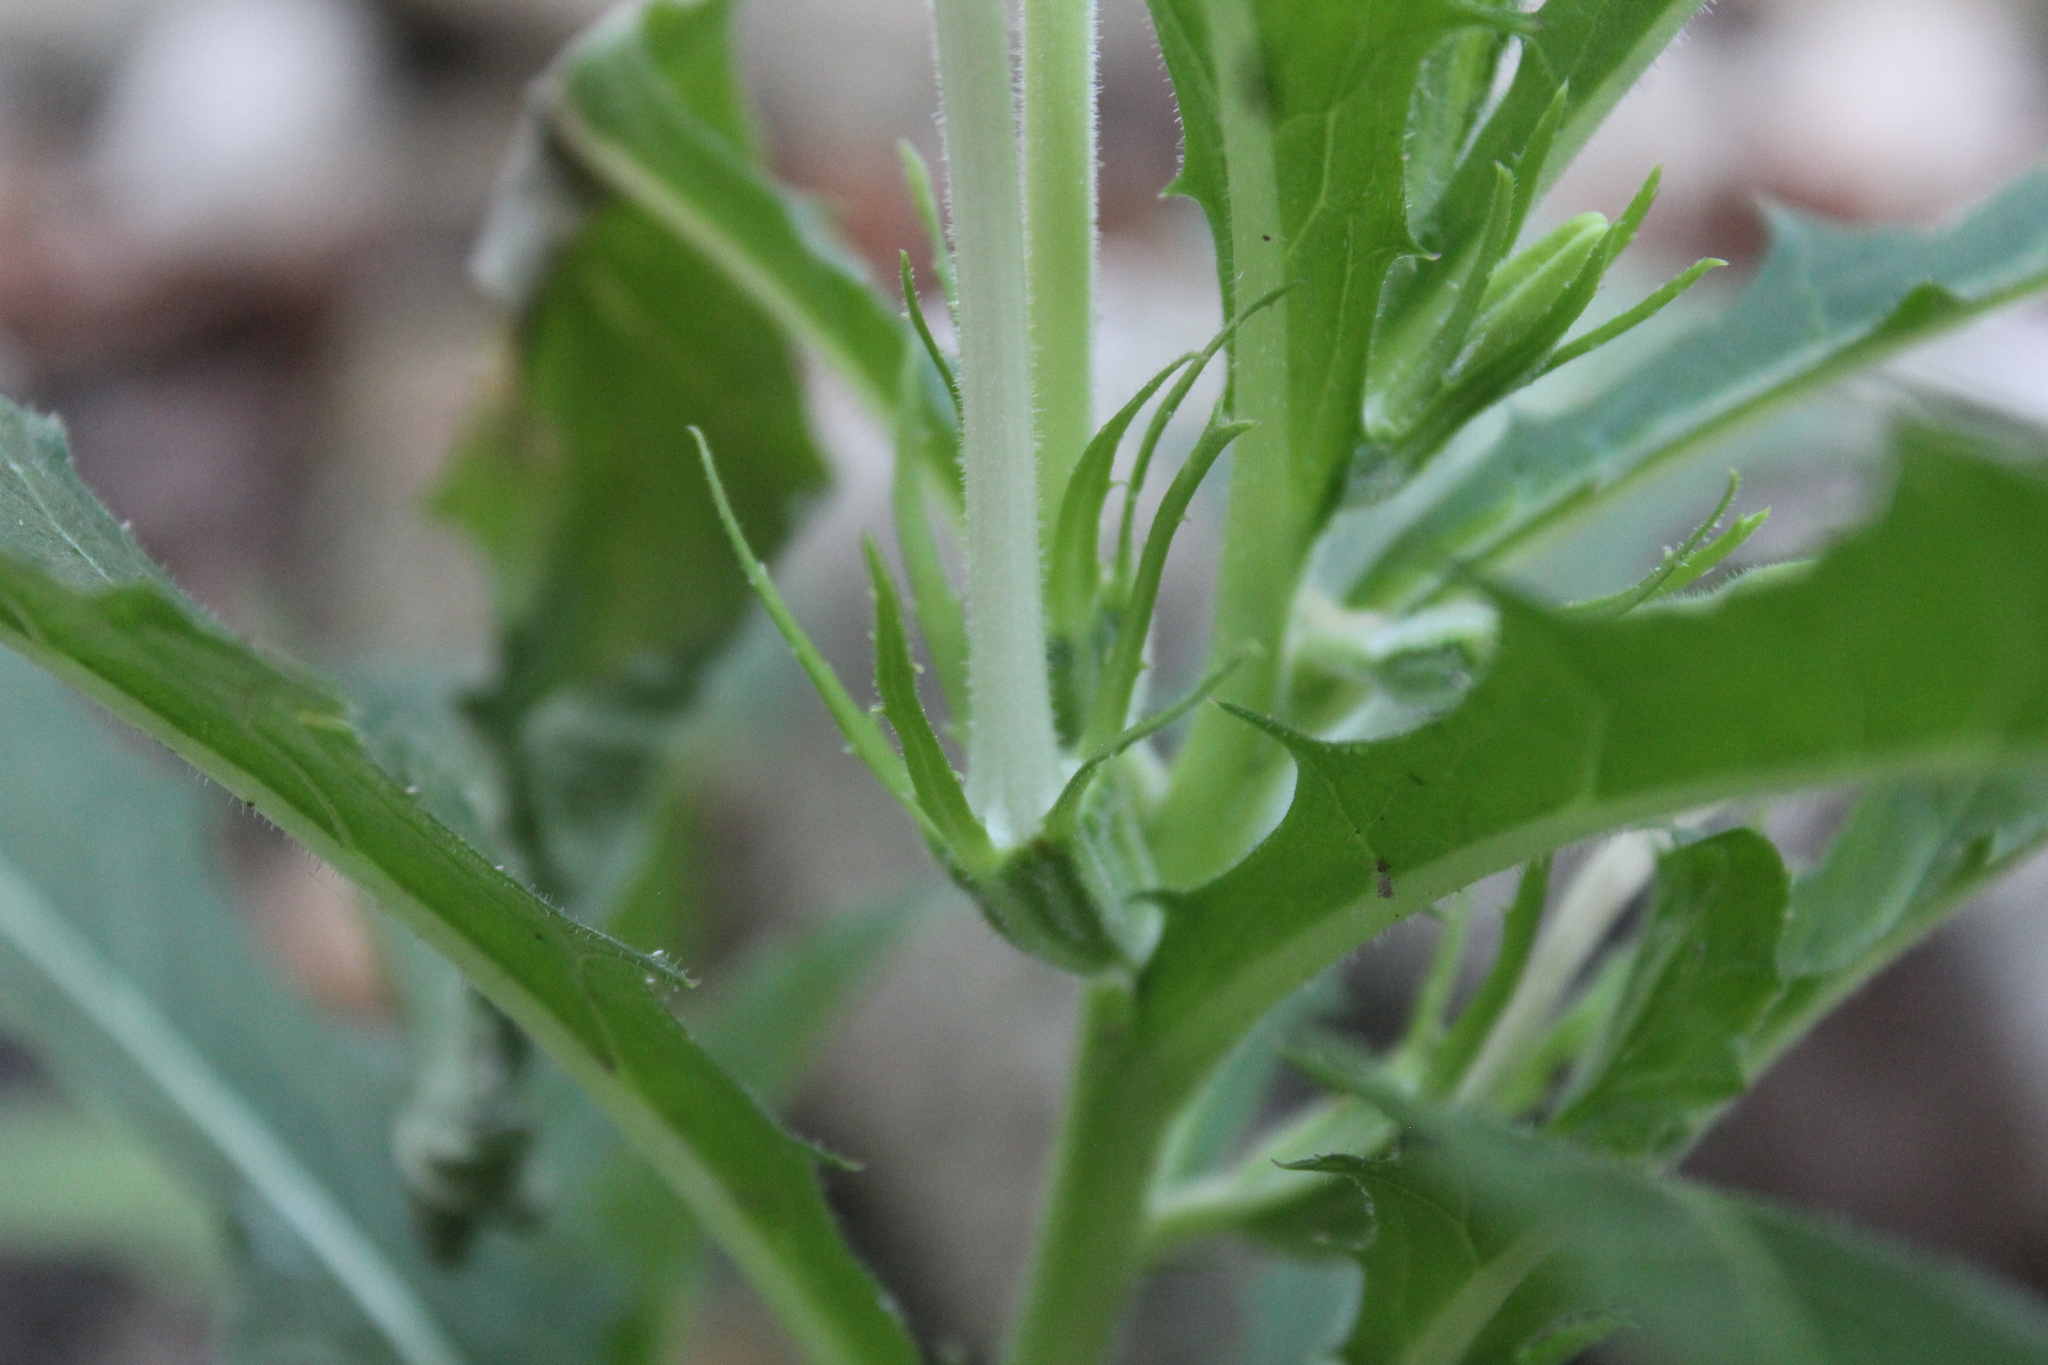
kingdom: Plantae
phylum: Tracheophyta
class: Magnoliopsida
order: Asterales
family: Campanulaceae
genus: Hippobroma
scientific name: Hippobroma longiflora
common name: Madamfate
